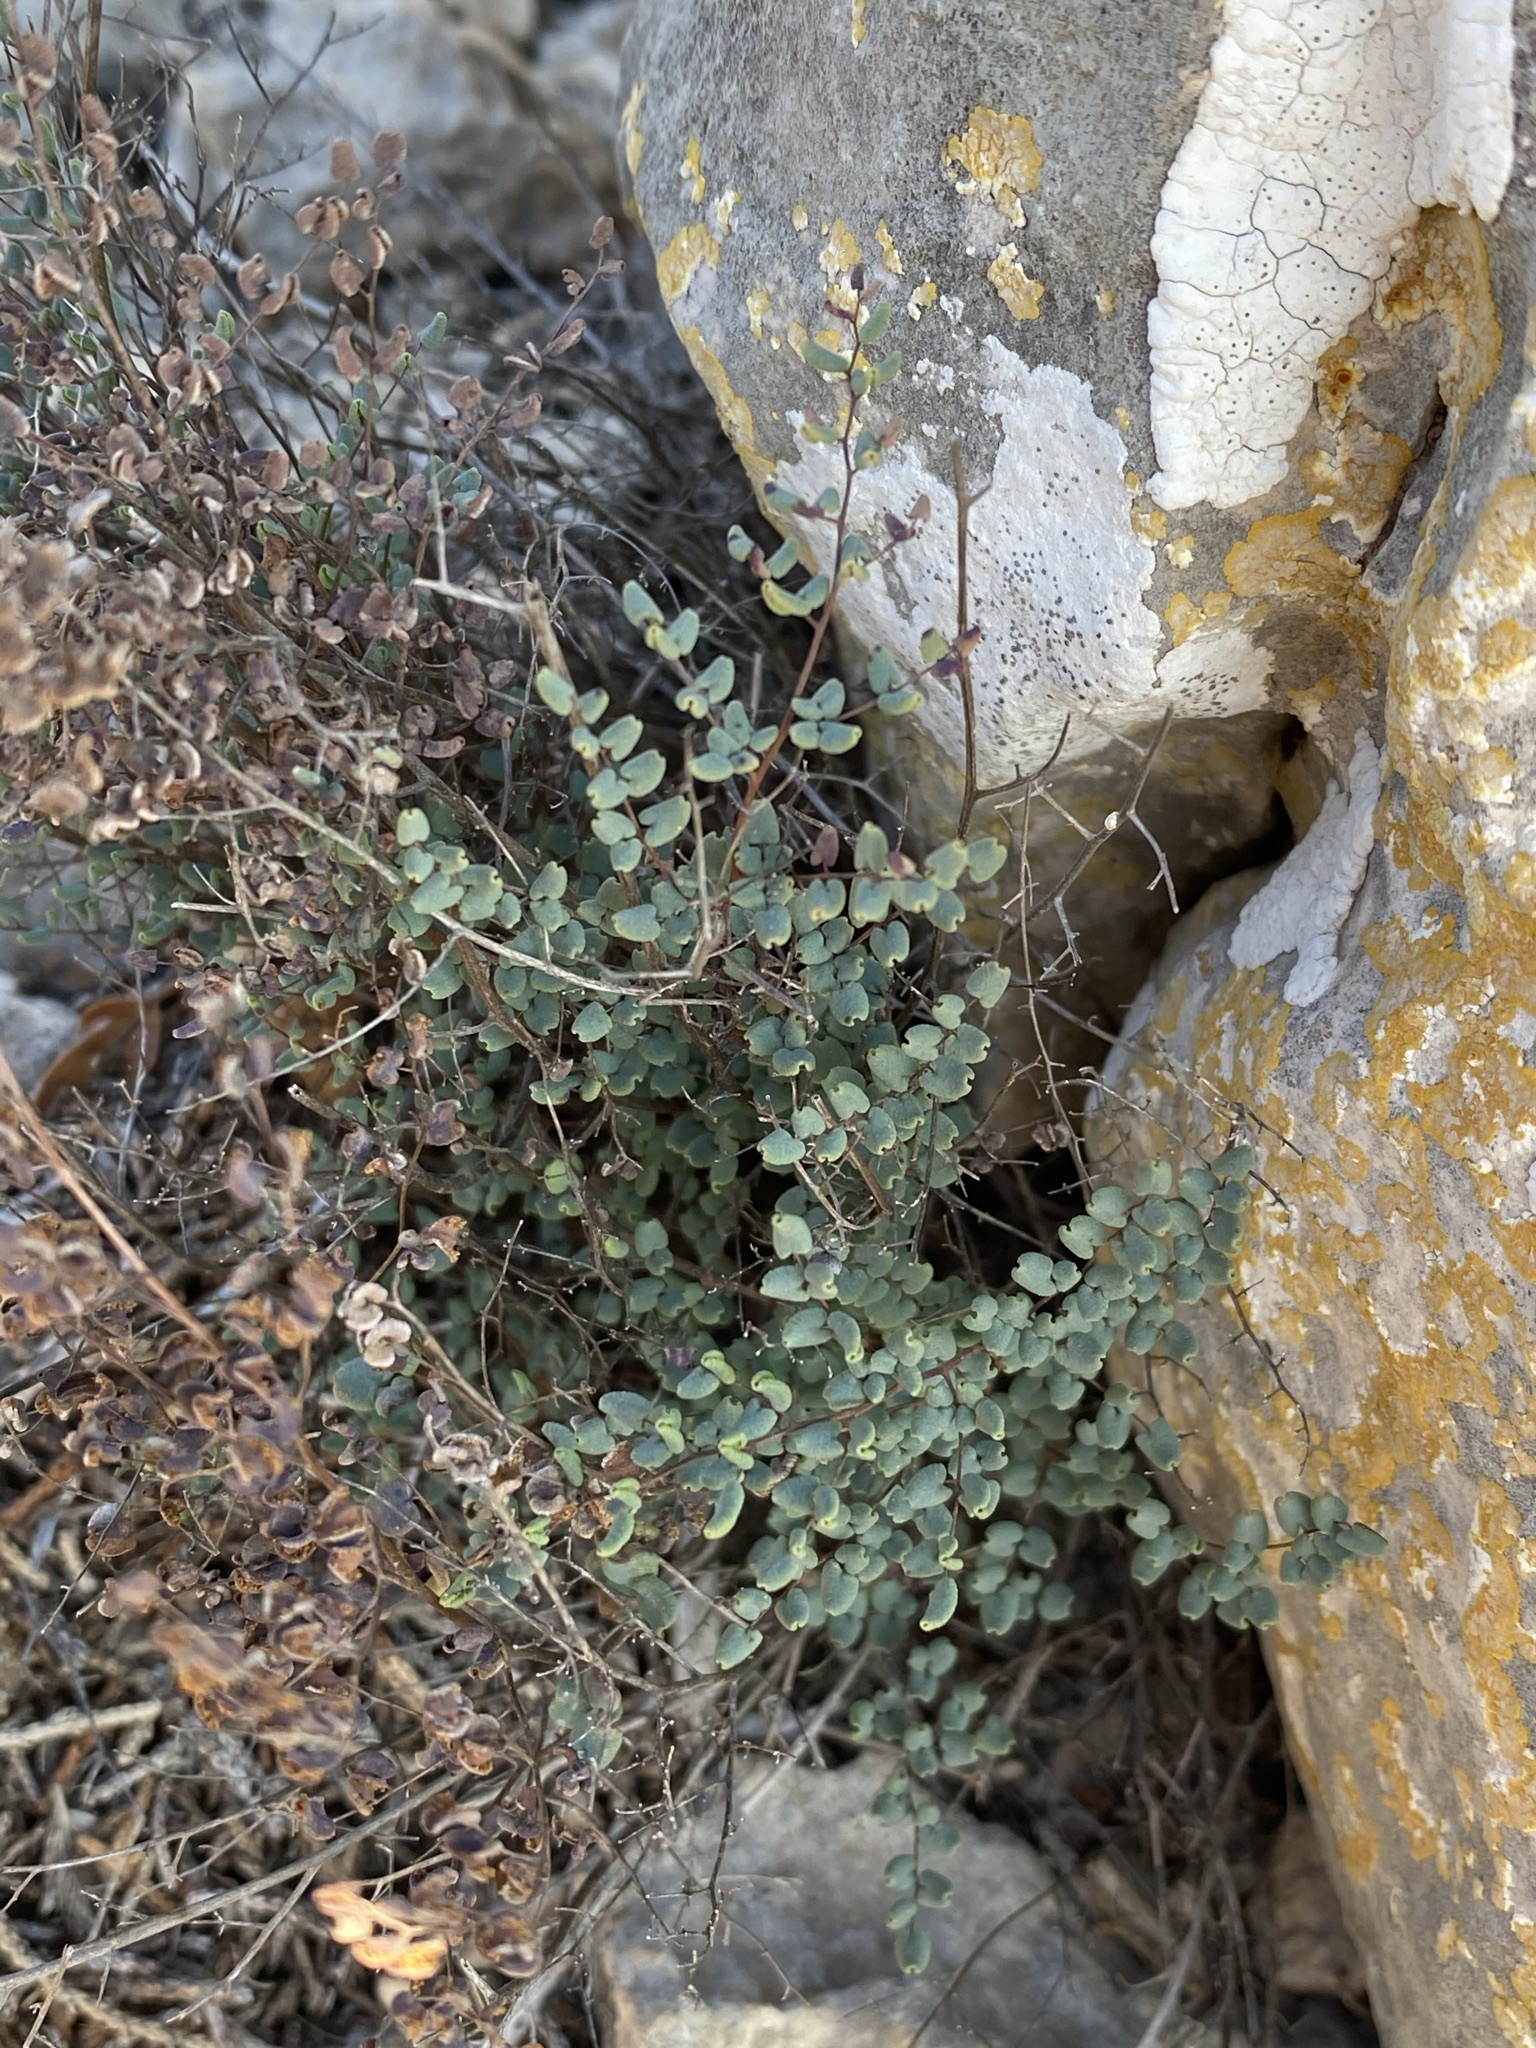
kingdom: Plantae
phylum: Tracheophyta
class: Polypodiopsida
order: Polypodiales
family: Pteridaceae
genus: Argyrochosma
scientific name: Argyrochosma microphylla
